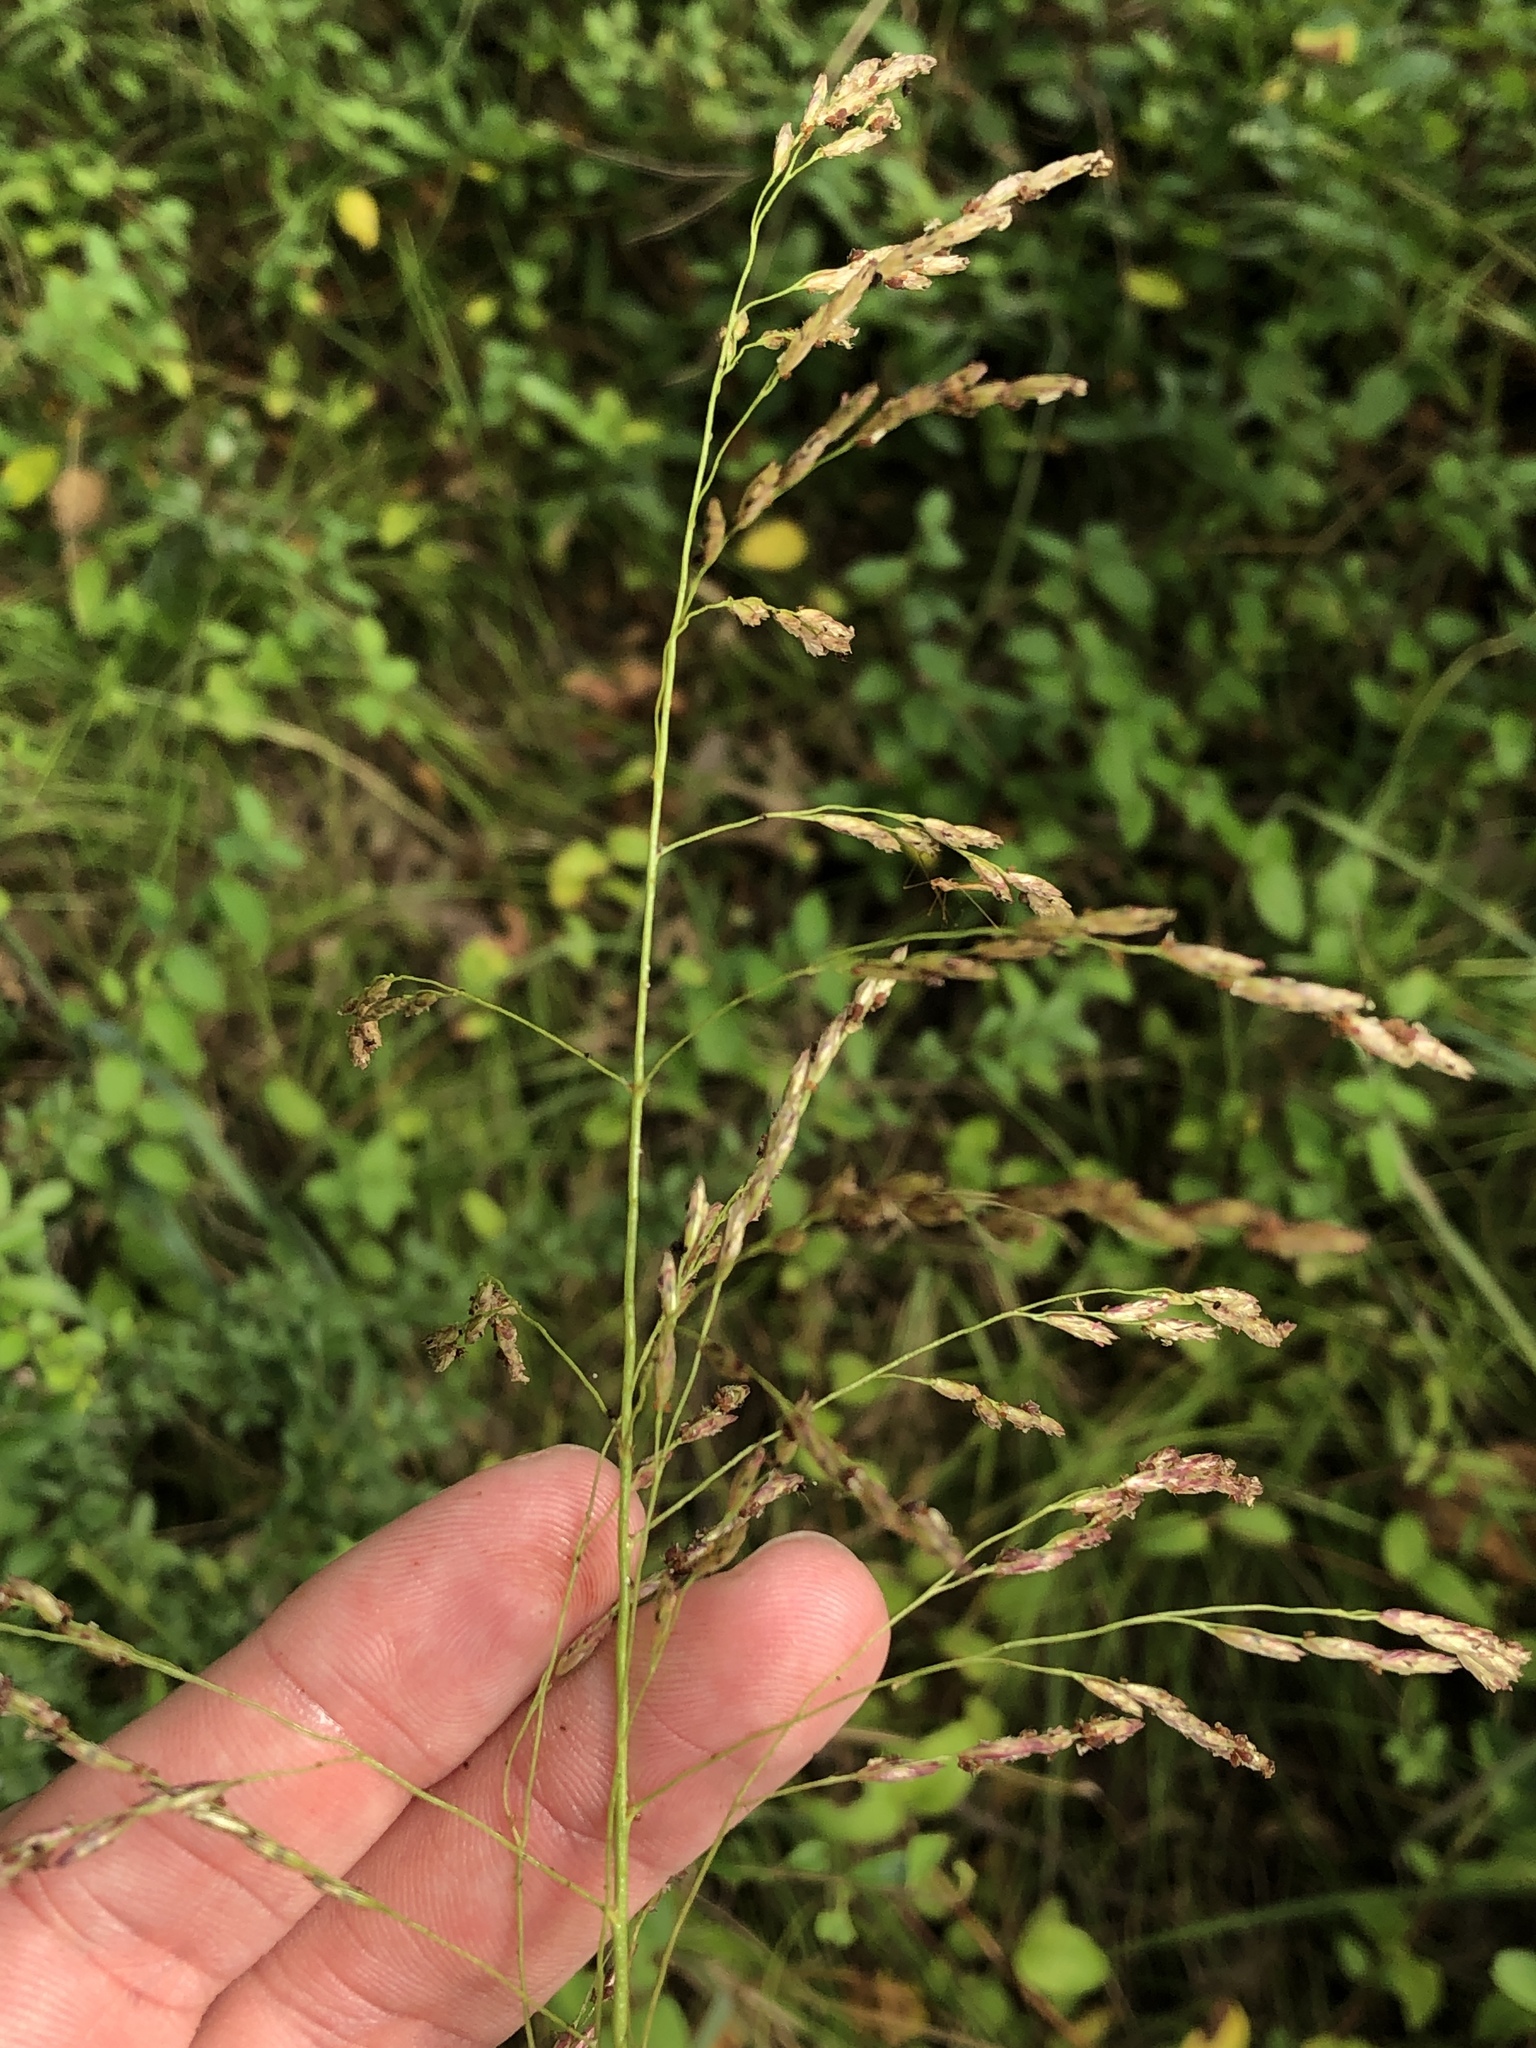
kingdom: Plantae
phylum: Tracheophyta
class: Liliopsida
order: Poales
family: Poaceae
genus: Tridens
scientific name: Tridens flavus
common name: Purpletop
